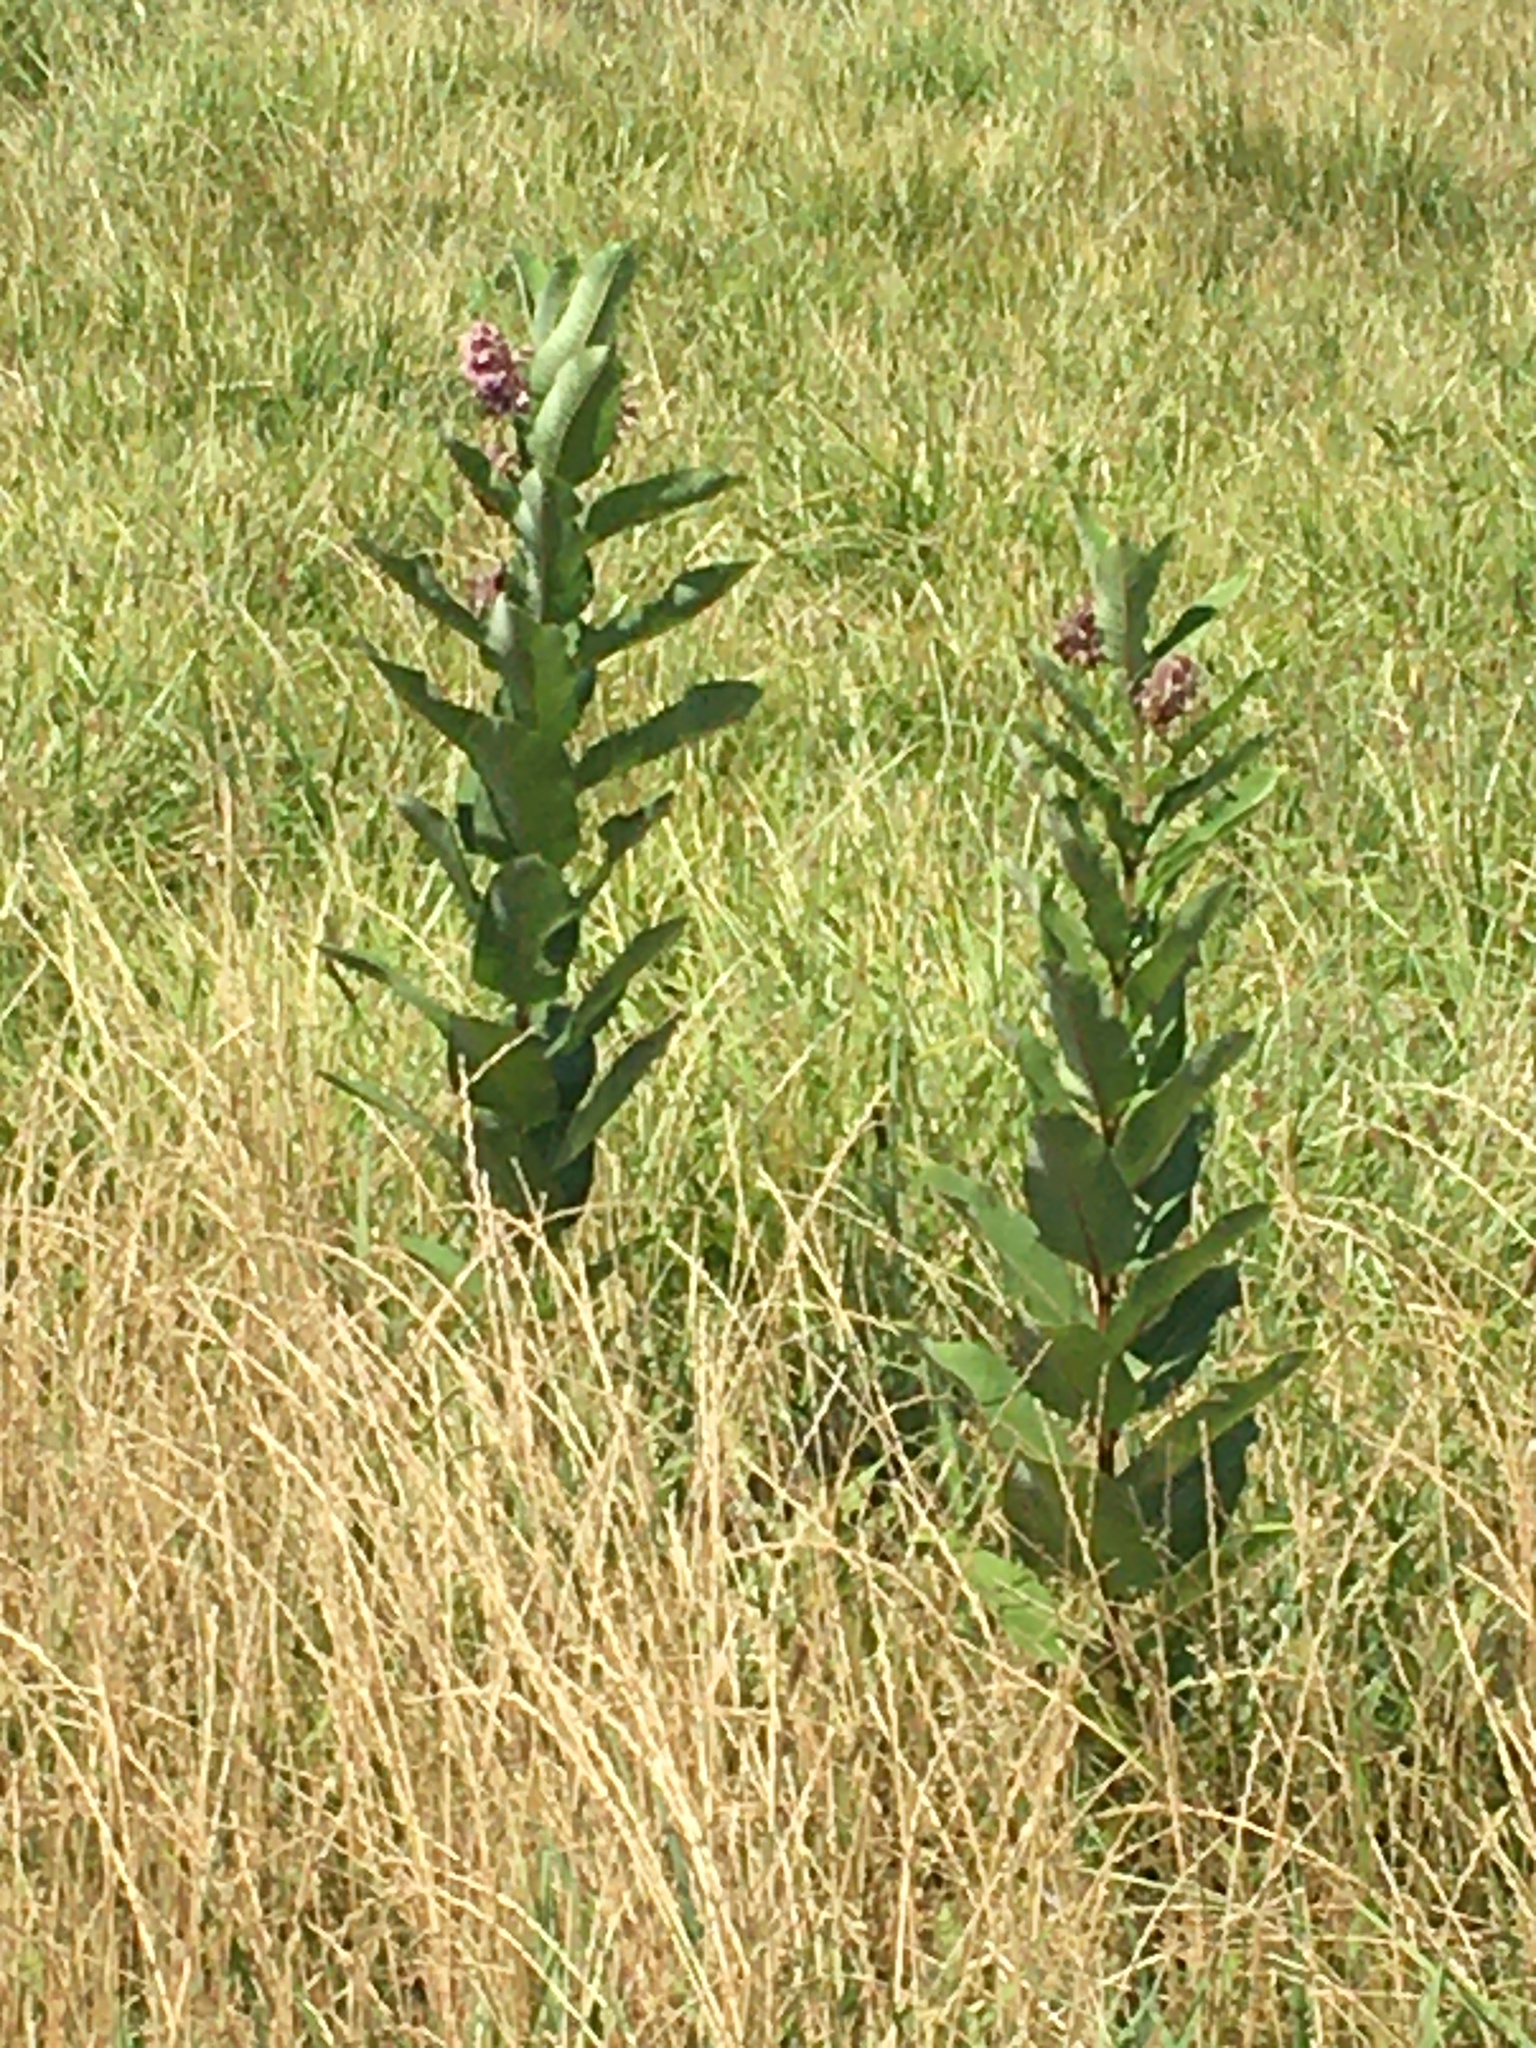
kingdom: Plantae
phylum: Tracheophyta
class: Magnoliopsida
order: Gentianales
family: Apocynaceae
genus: Asclepias
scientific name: Asclepias syriaca
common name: Common milkweed
